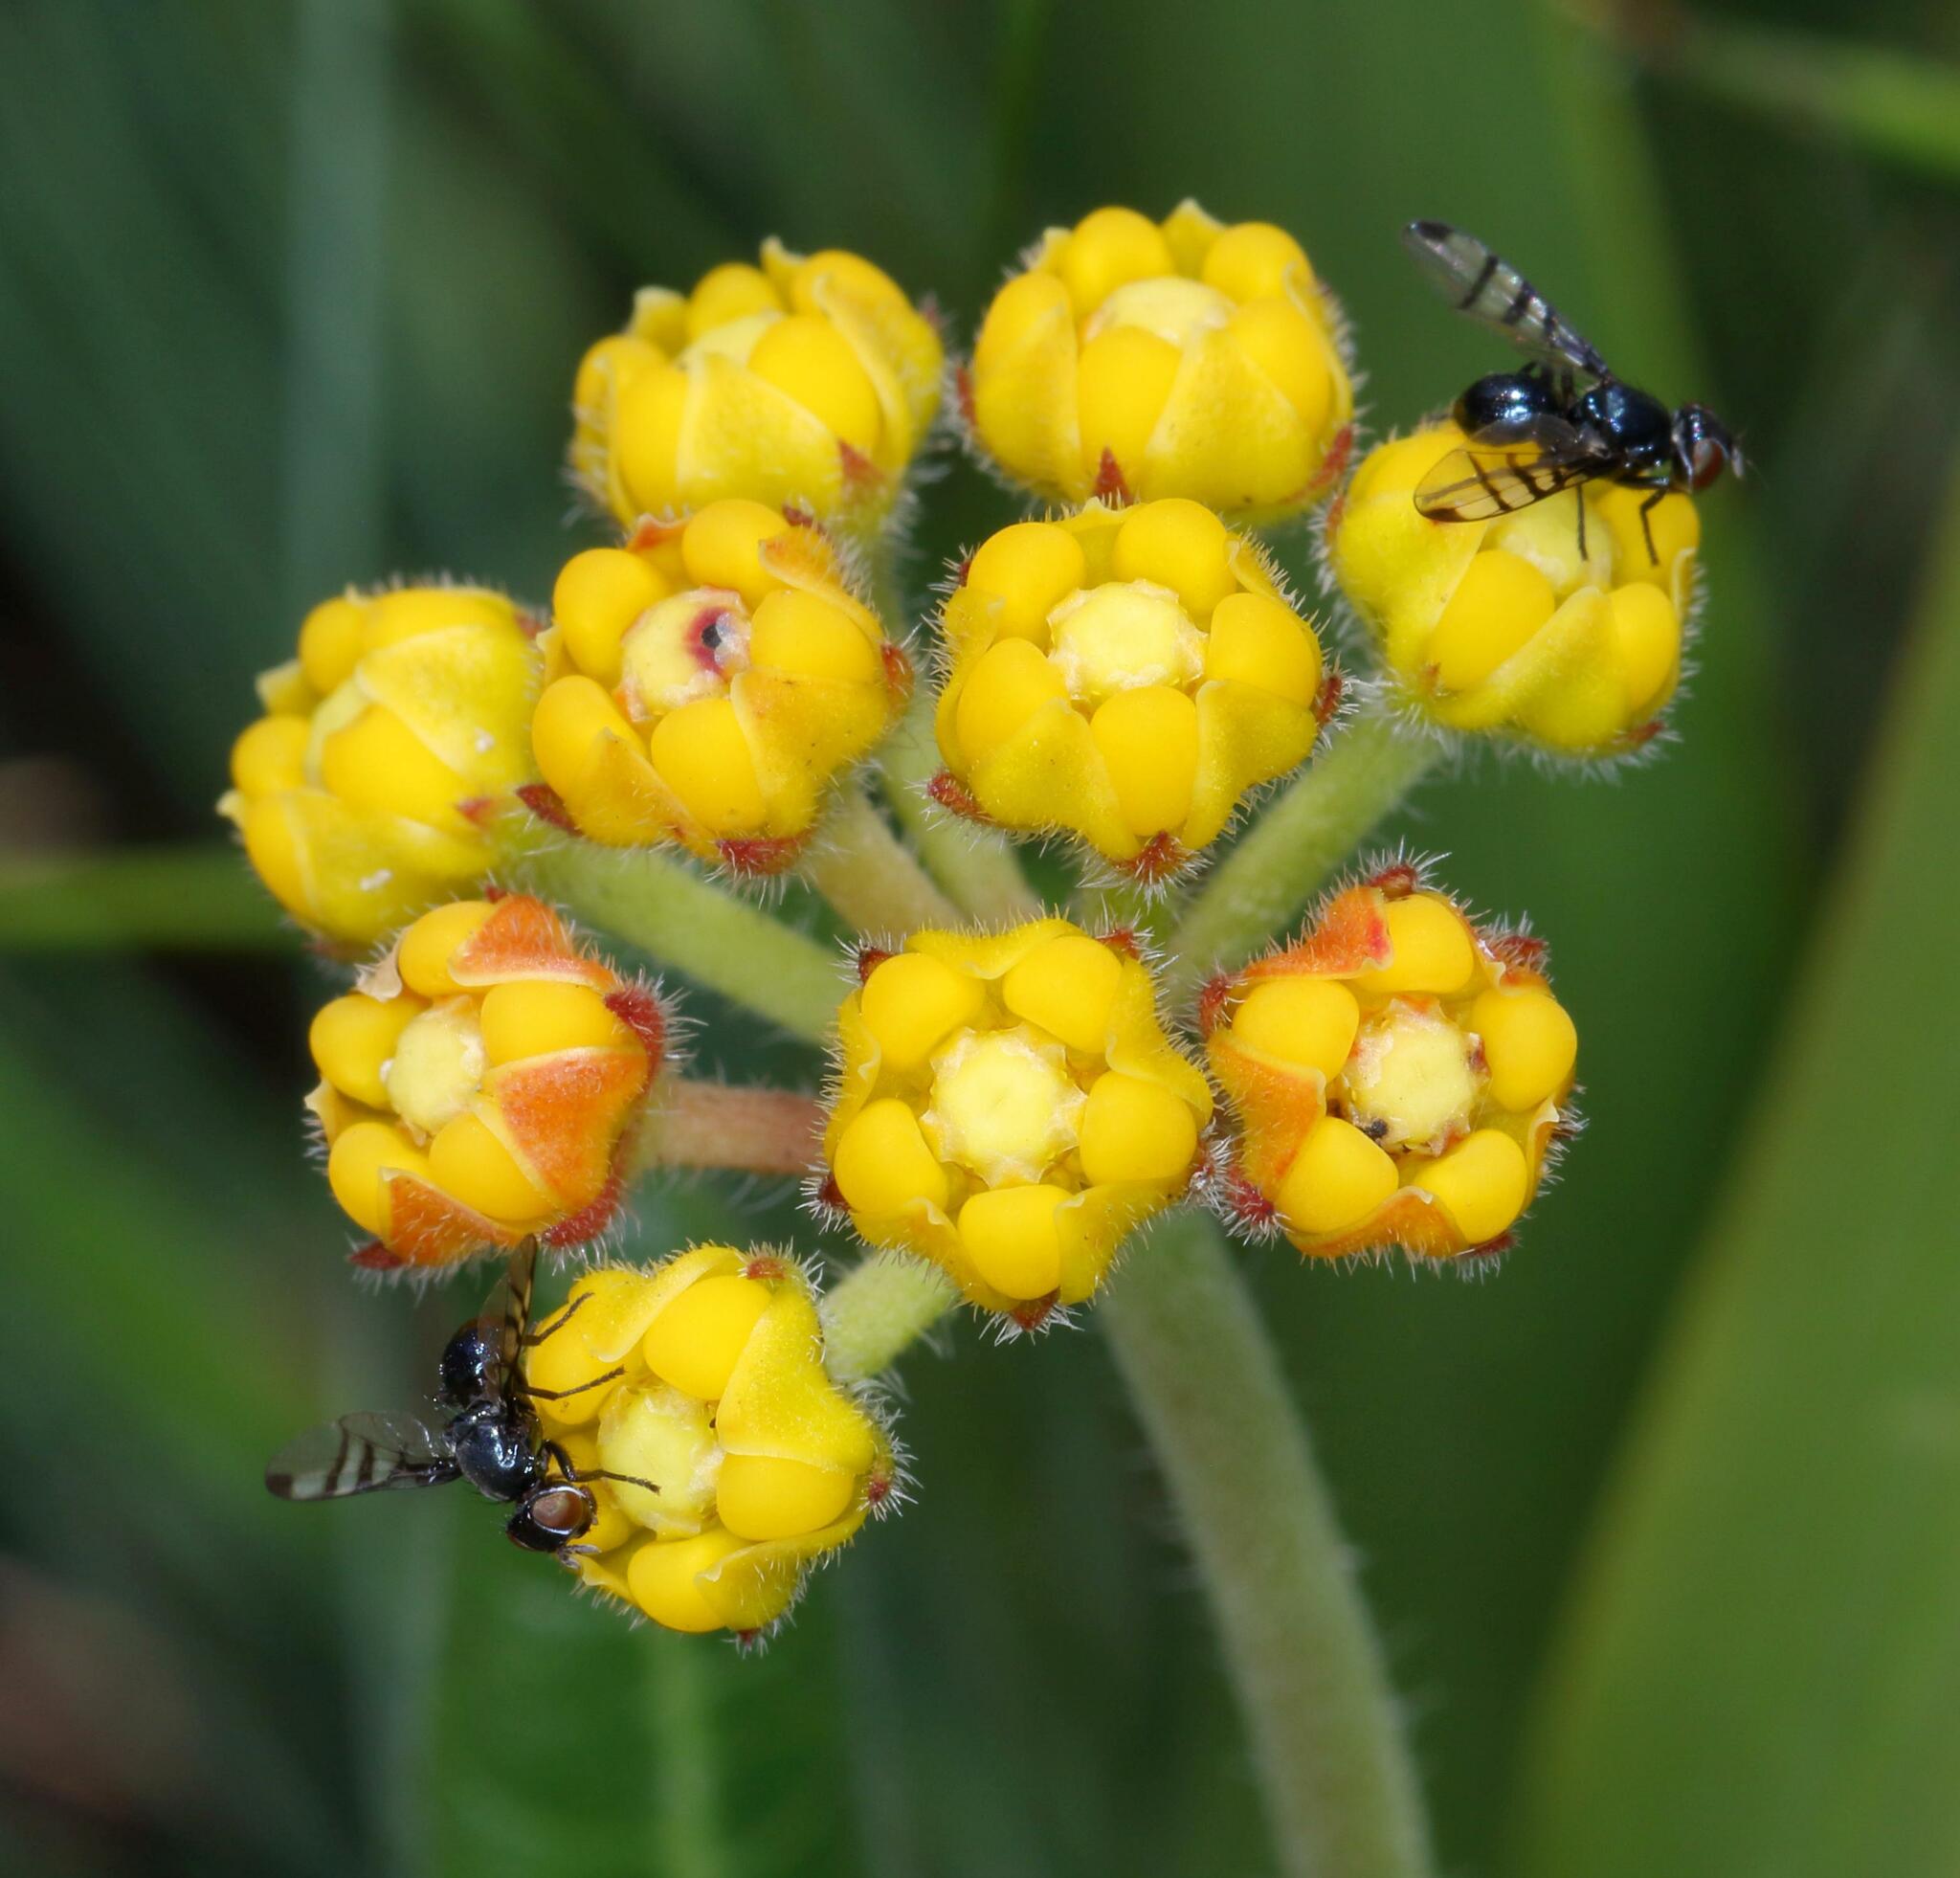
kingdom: Plantae
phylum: Tracheophyta
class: Magnoliopsida
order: Gentianales
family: Apocynaceae
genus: Xysmalobium
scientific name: Xysmalobium tysonianum
